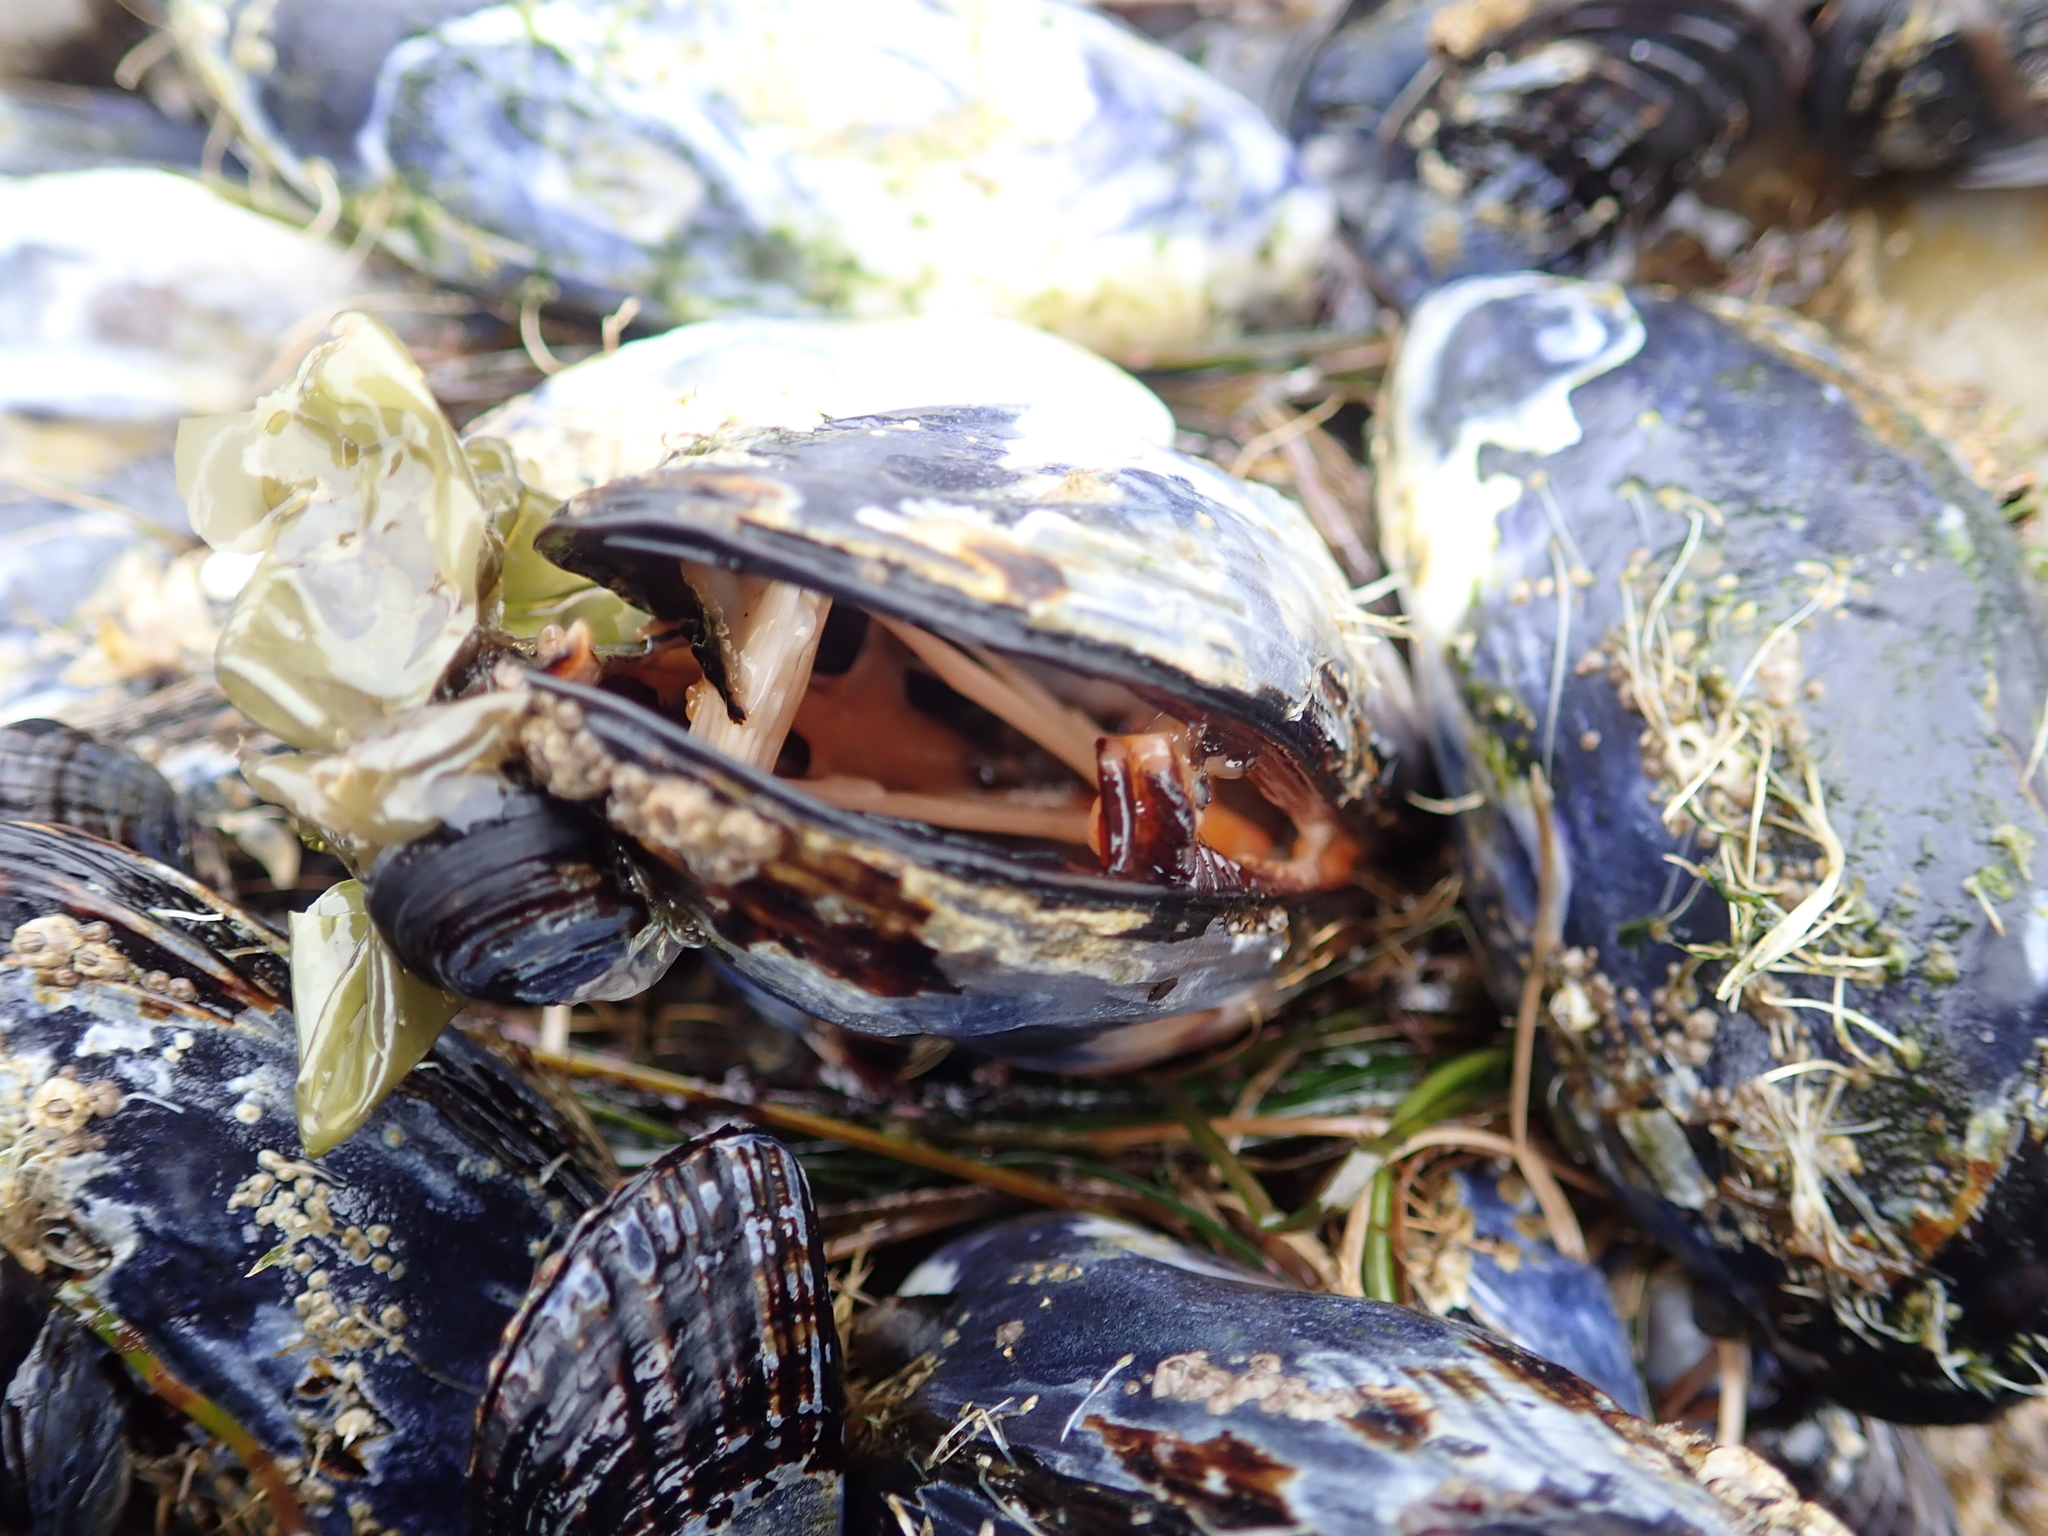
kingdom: Animalia
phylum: Mollusca
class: Bivalvia
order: Mytilida
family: Mytilidae
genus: Mytilus
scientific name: Mytilus californianus
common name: California mussel
